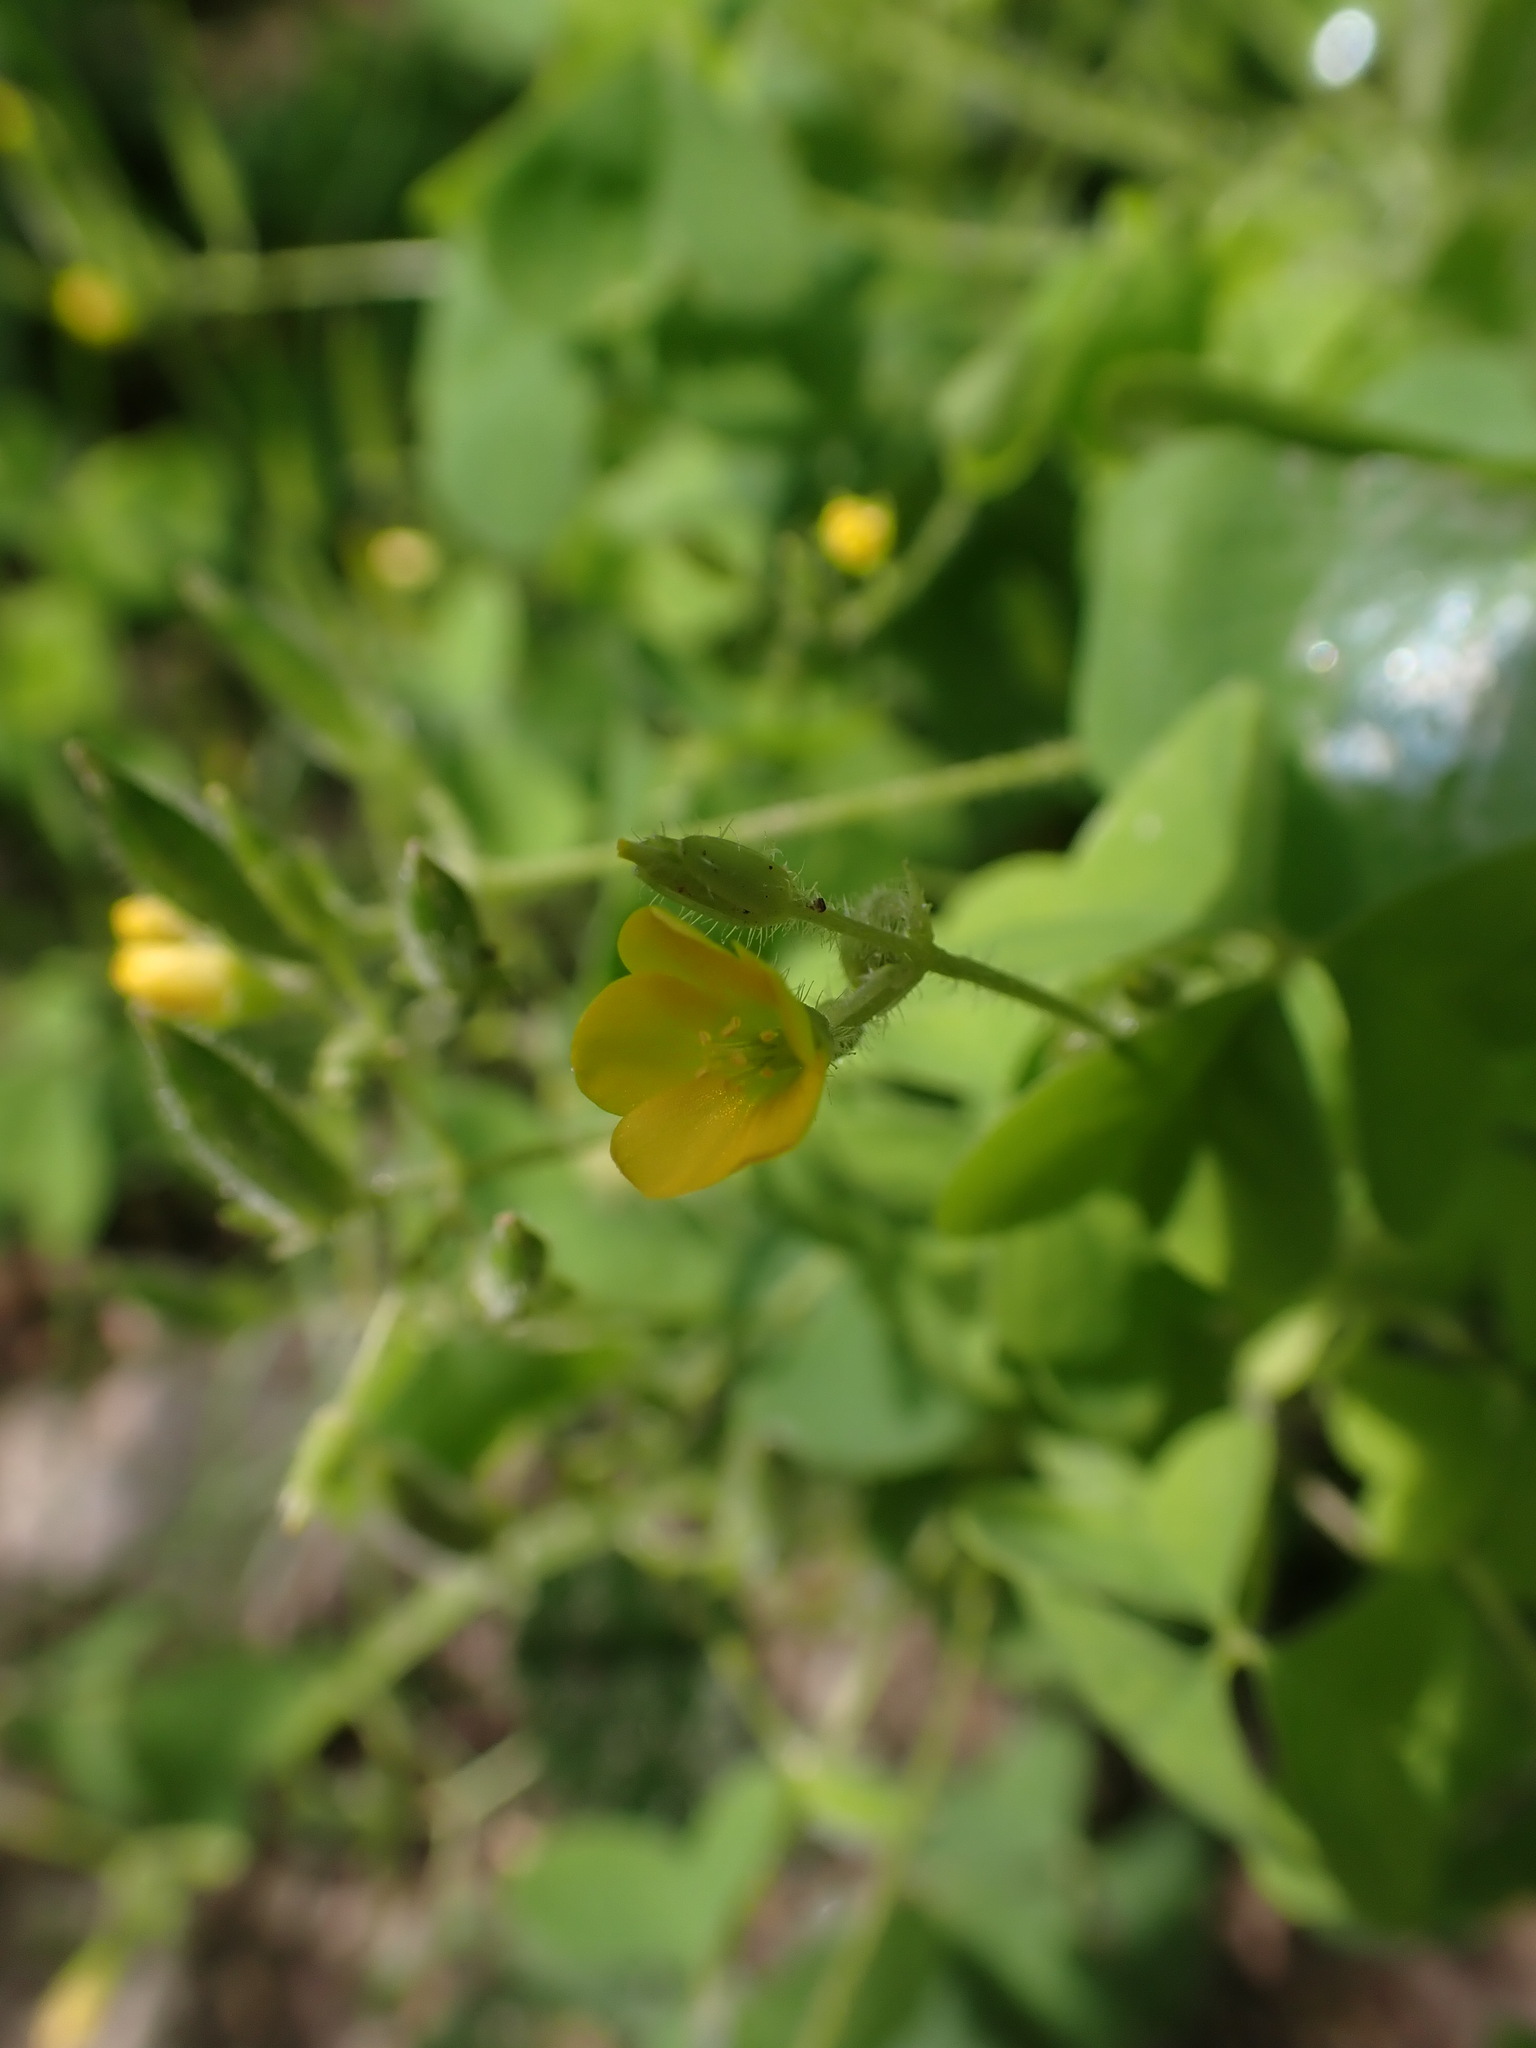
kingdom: Plantae
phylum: Tracheophyta
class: Magnoliopsida
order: Oxalidales
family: Oxalidaceae
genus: Oxalis
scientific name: Oxalis stricta
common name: Upright yellow-sorrel
